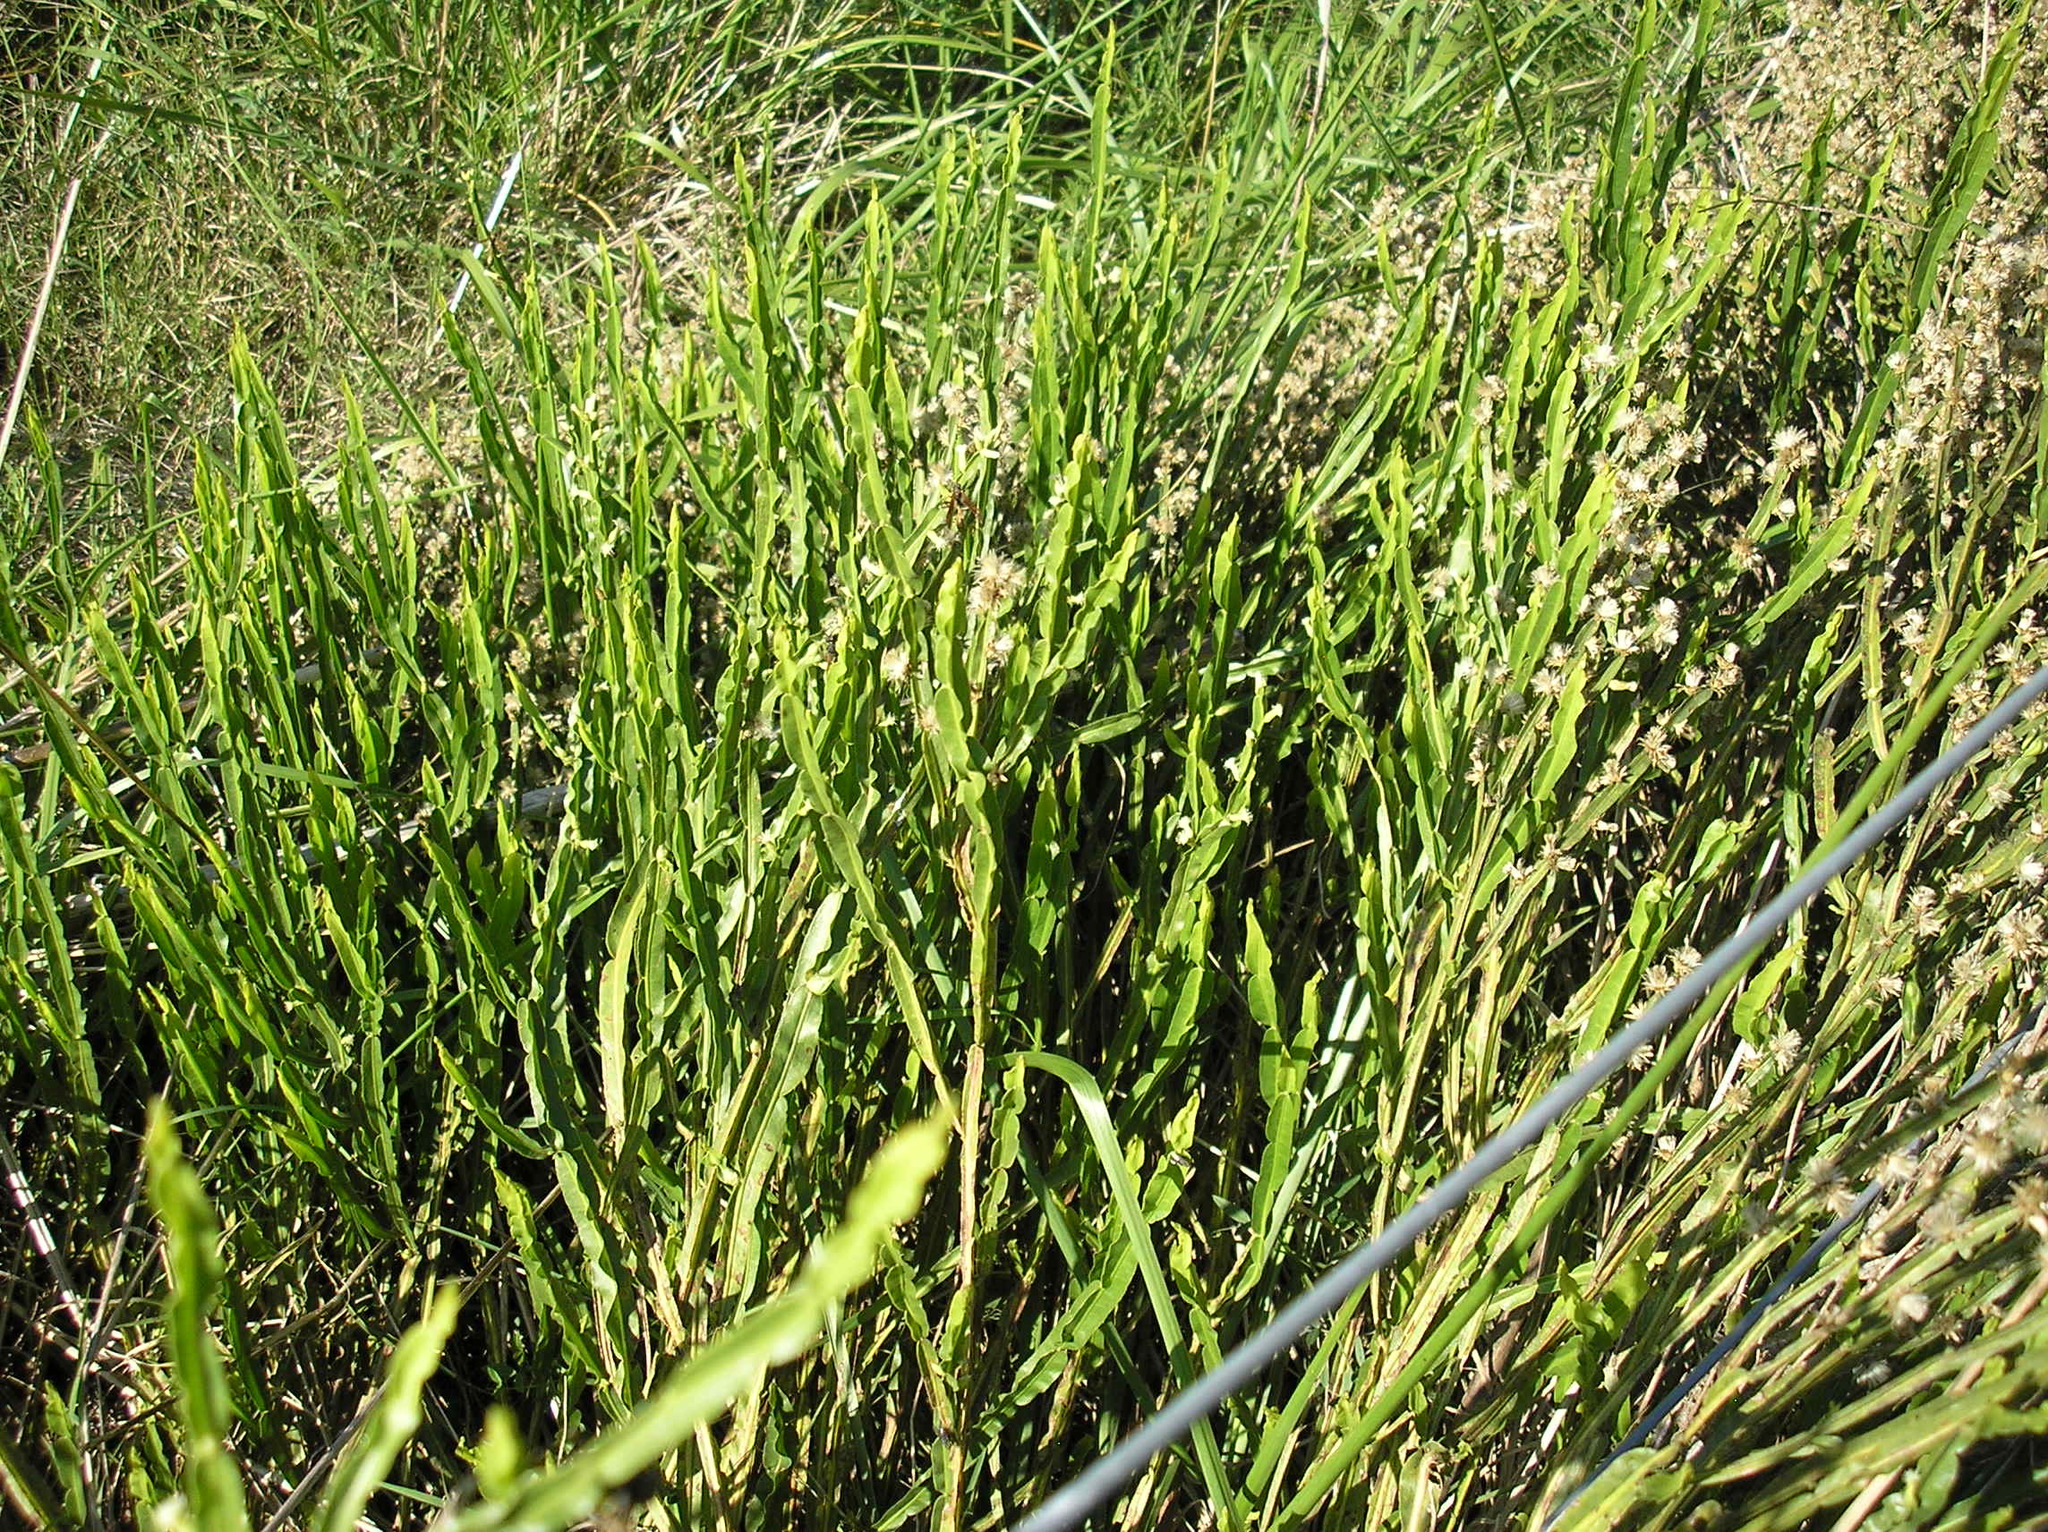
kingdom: Plantae
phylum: Tracheophyta
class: Magnoliopsida
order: Asterales
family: Asteraceae
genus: Baccharis
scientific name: Baccharis trimera
